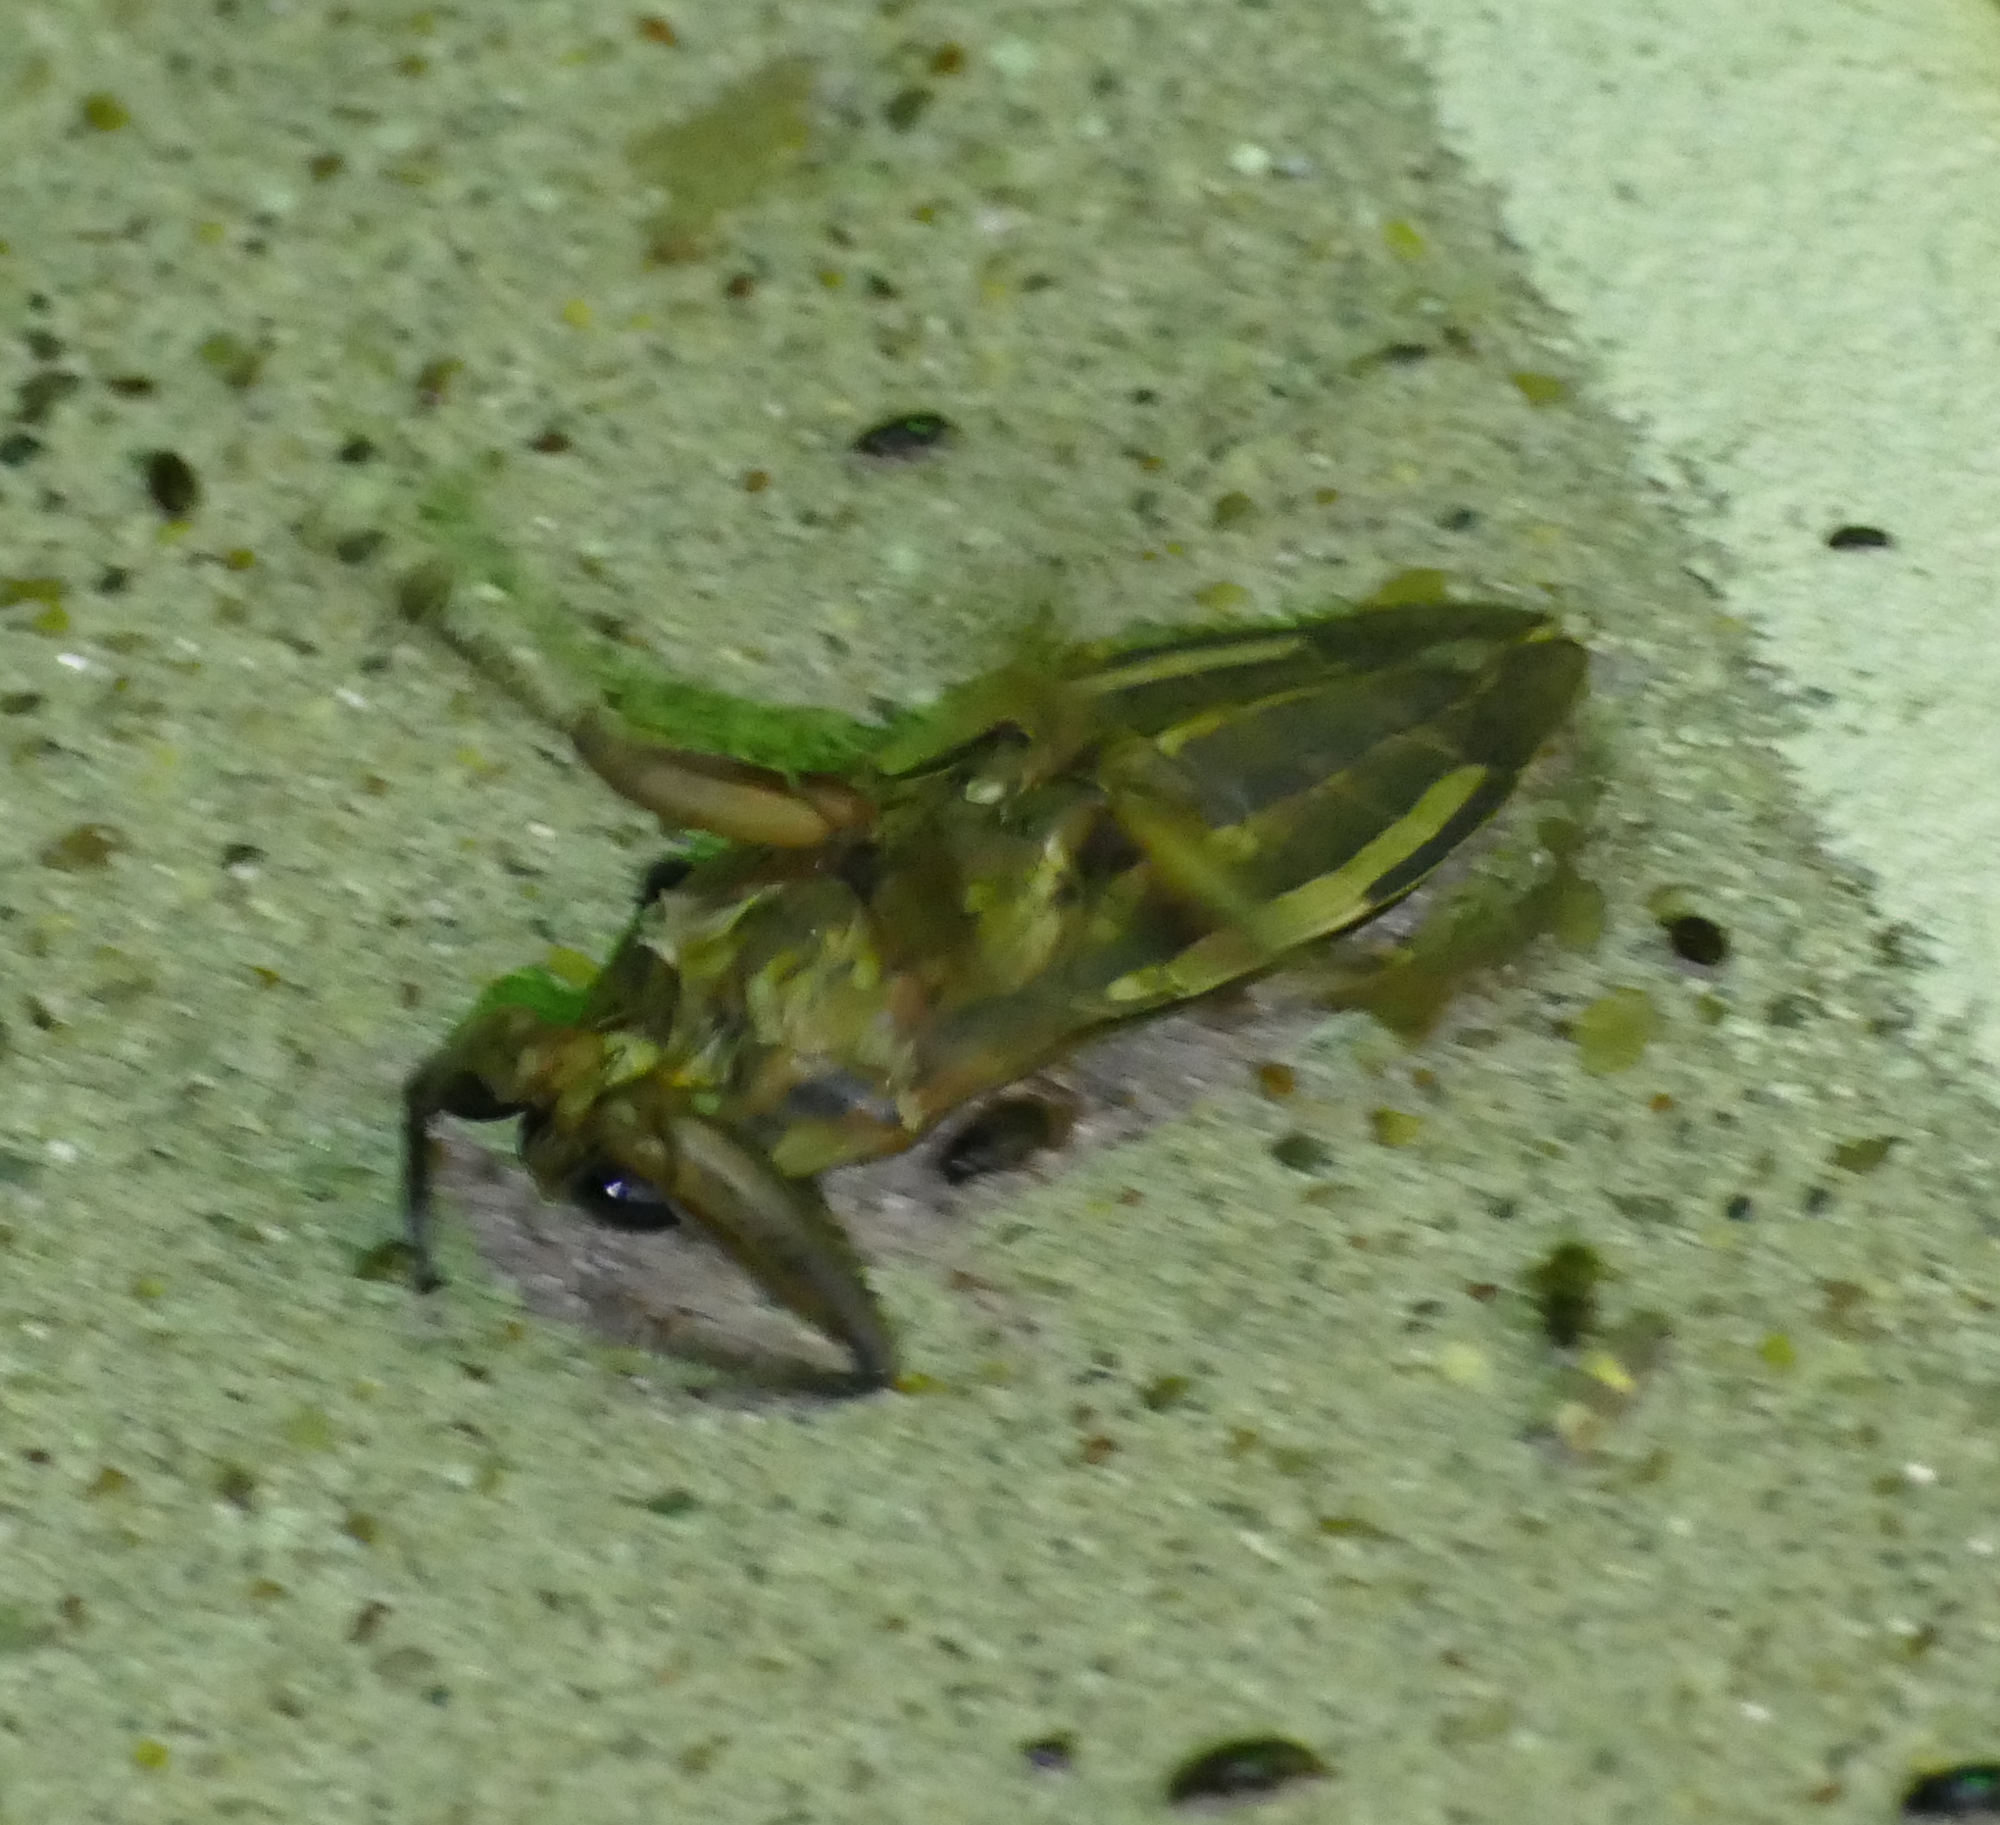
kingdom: Animalia
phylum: Arthropoda
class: Insecta
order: Hemiptera
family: Belostomatidae
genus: Benacus
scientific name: Benacus griseus
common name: Eastern toe-biter
